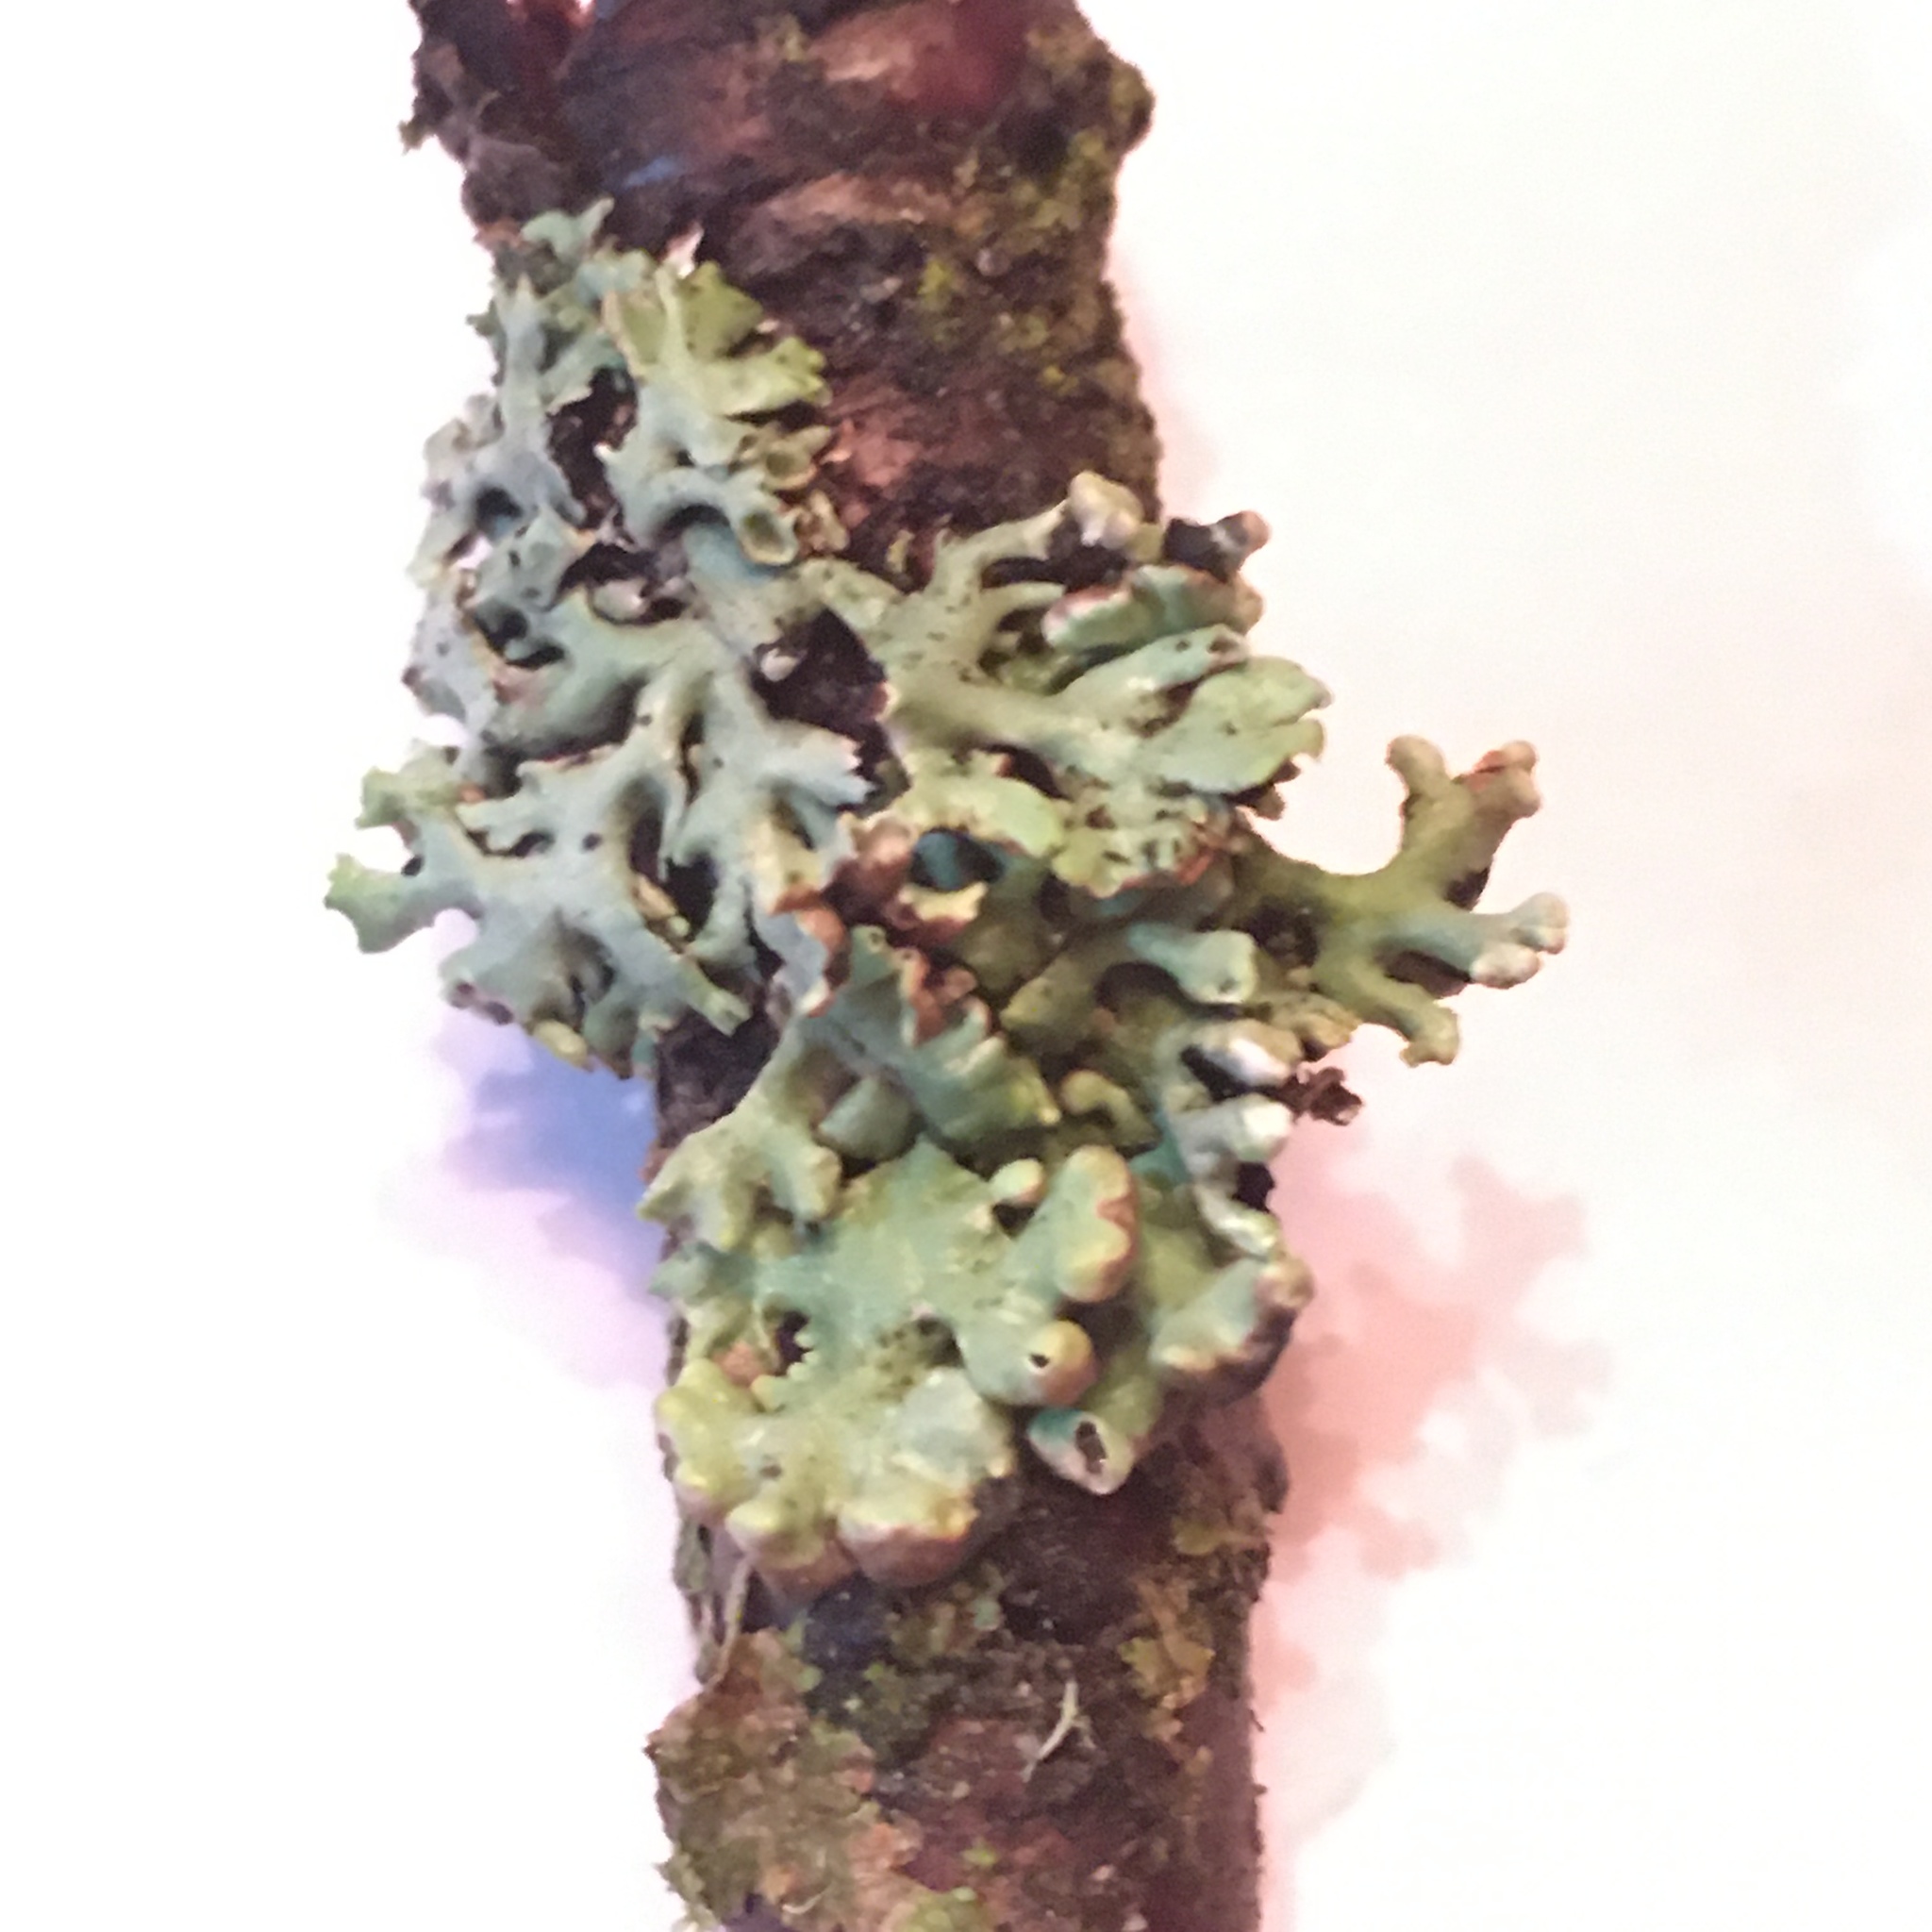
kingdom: Fungi
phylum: Ascomycota
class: Lecanoromycetes
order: Lecanorales
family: Parmeliaceae
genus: Hypogymnia
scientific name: Hypogymnia physodes
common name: Dark crottle
